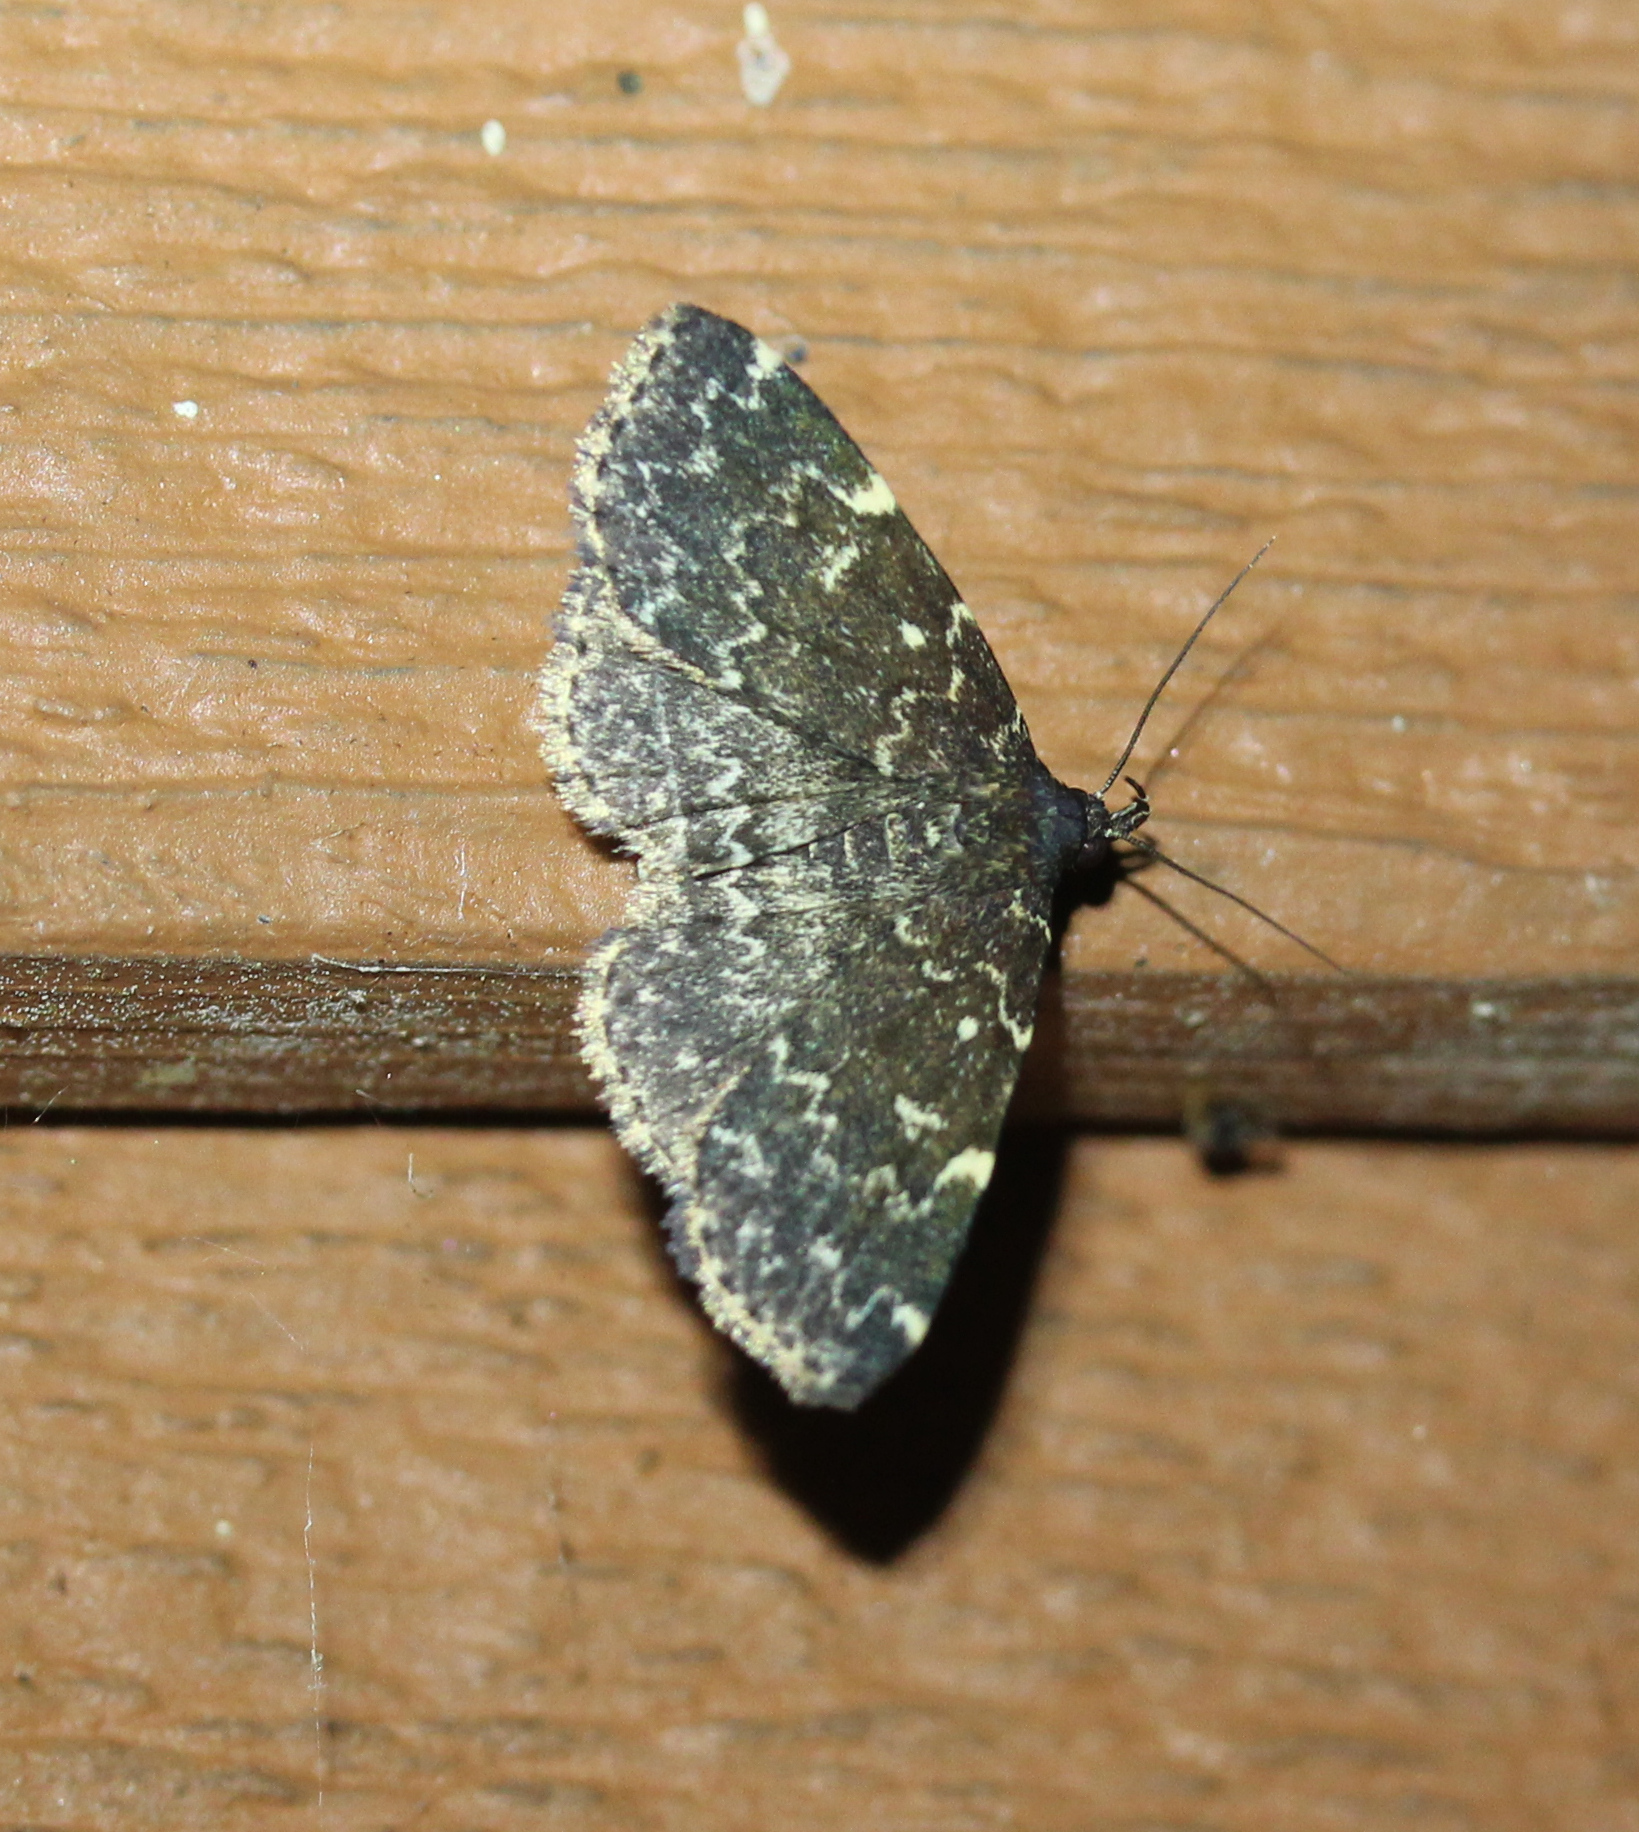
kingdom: Animalia
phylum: Arthropoda
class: Insecta
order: Lepidoptera
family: Erebidae
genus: Idia
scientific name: Idia scobialis
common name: Smoky idia moth
